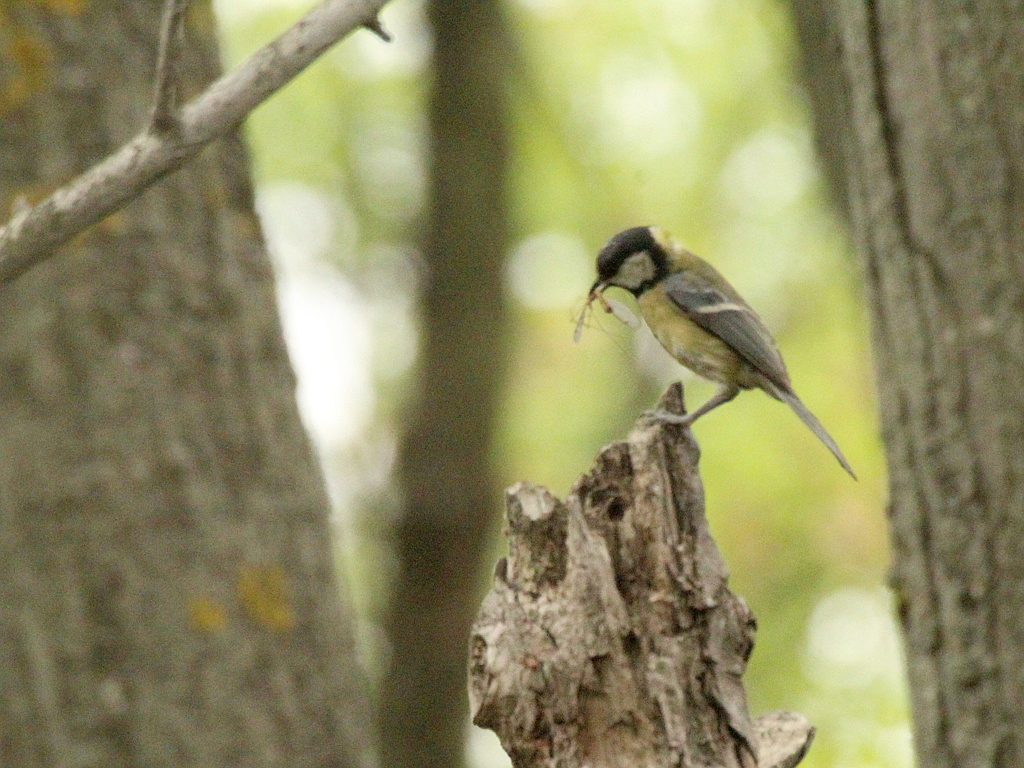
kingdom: Animalia
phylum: Chordata
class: Aves
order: Passeriformes
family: Paridae
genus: Parus
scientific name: Parus major
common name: Great tit
